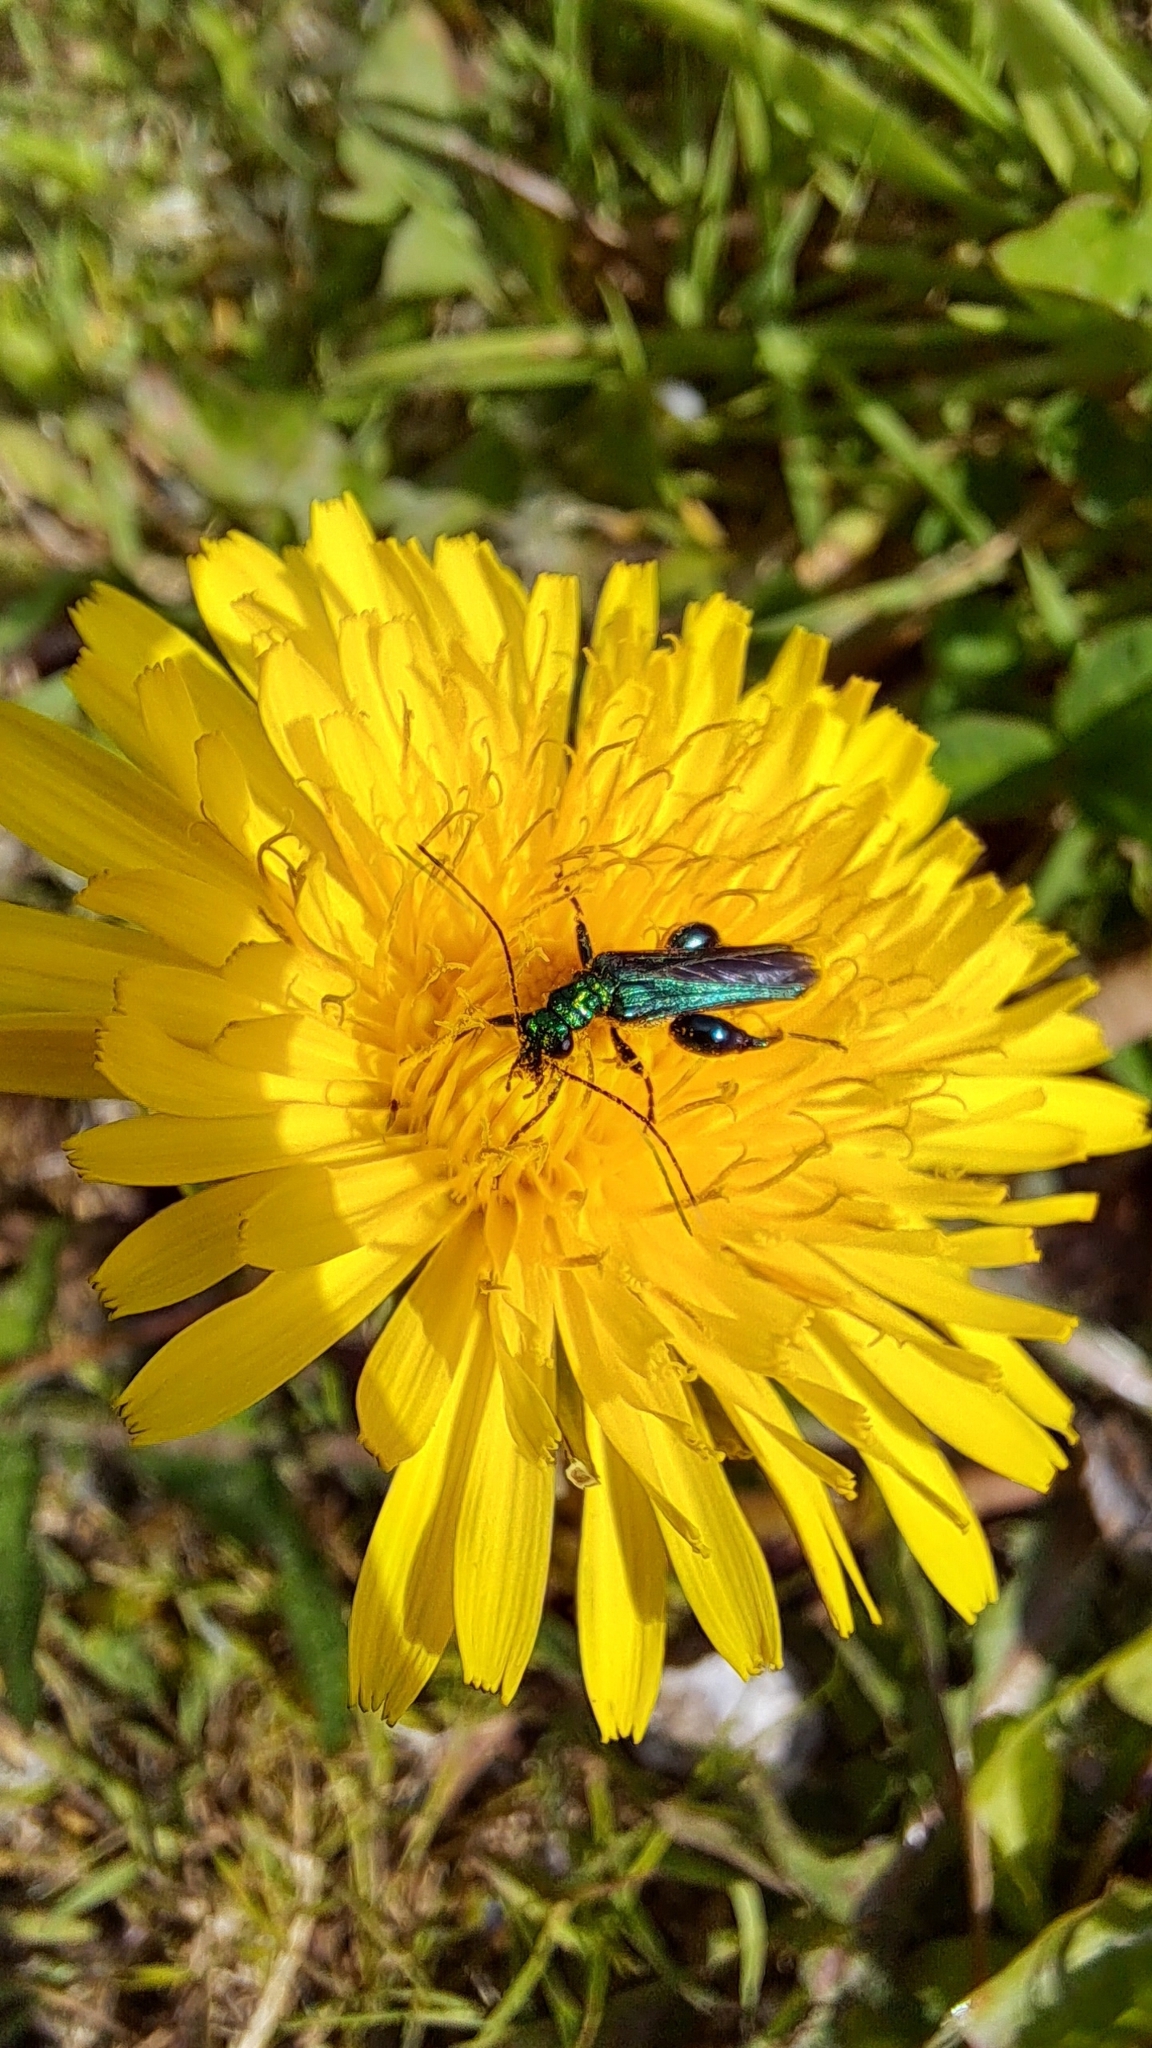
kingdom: Animalia
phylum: Arthropoda
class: Insecta
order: Coleoptera
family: Oedemeridae
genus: Oedemera
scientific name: Oedemera nobilis
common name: Swollen-thighed beetle
